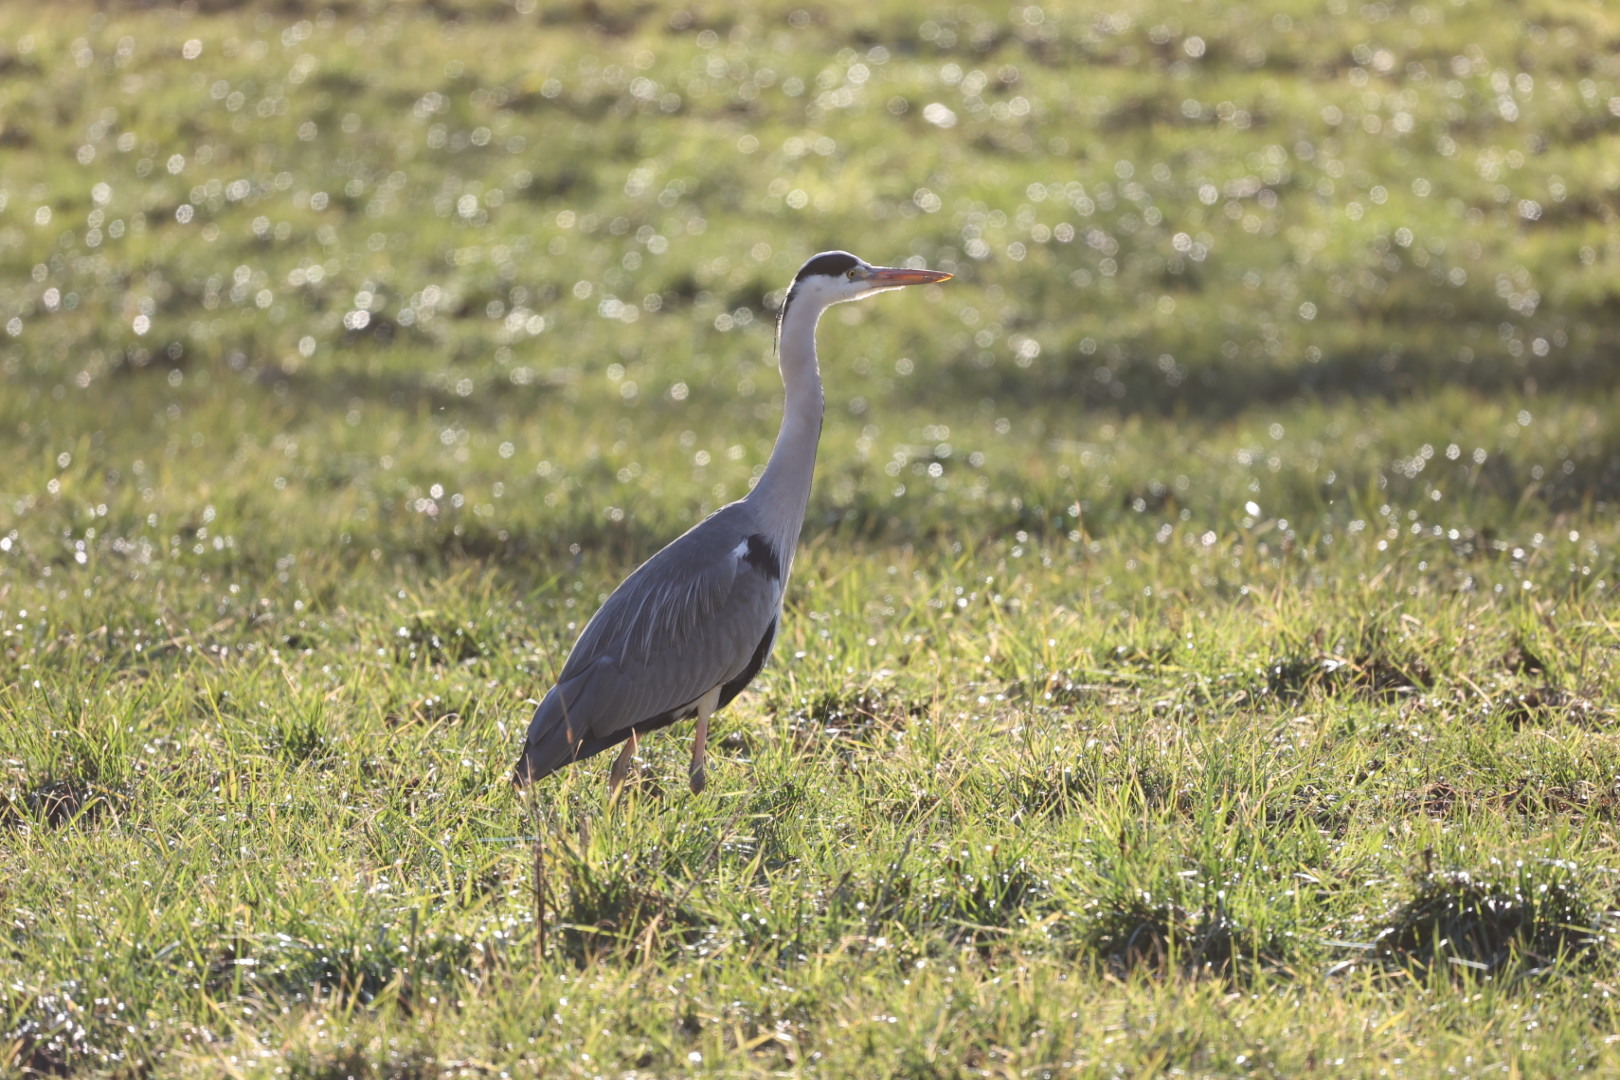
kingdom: Animalia
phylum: Chordata
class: Aves
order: Pelecaniformes
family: Ardeidae
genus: Ardea
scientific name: Ardea cinerea
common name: Grey heron
